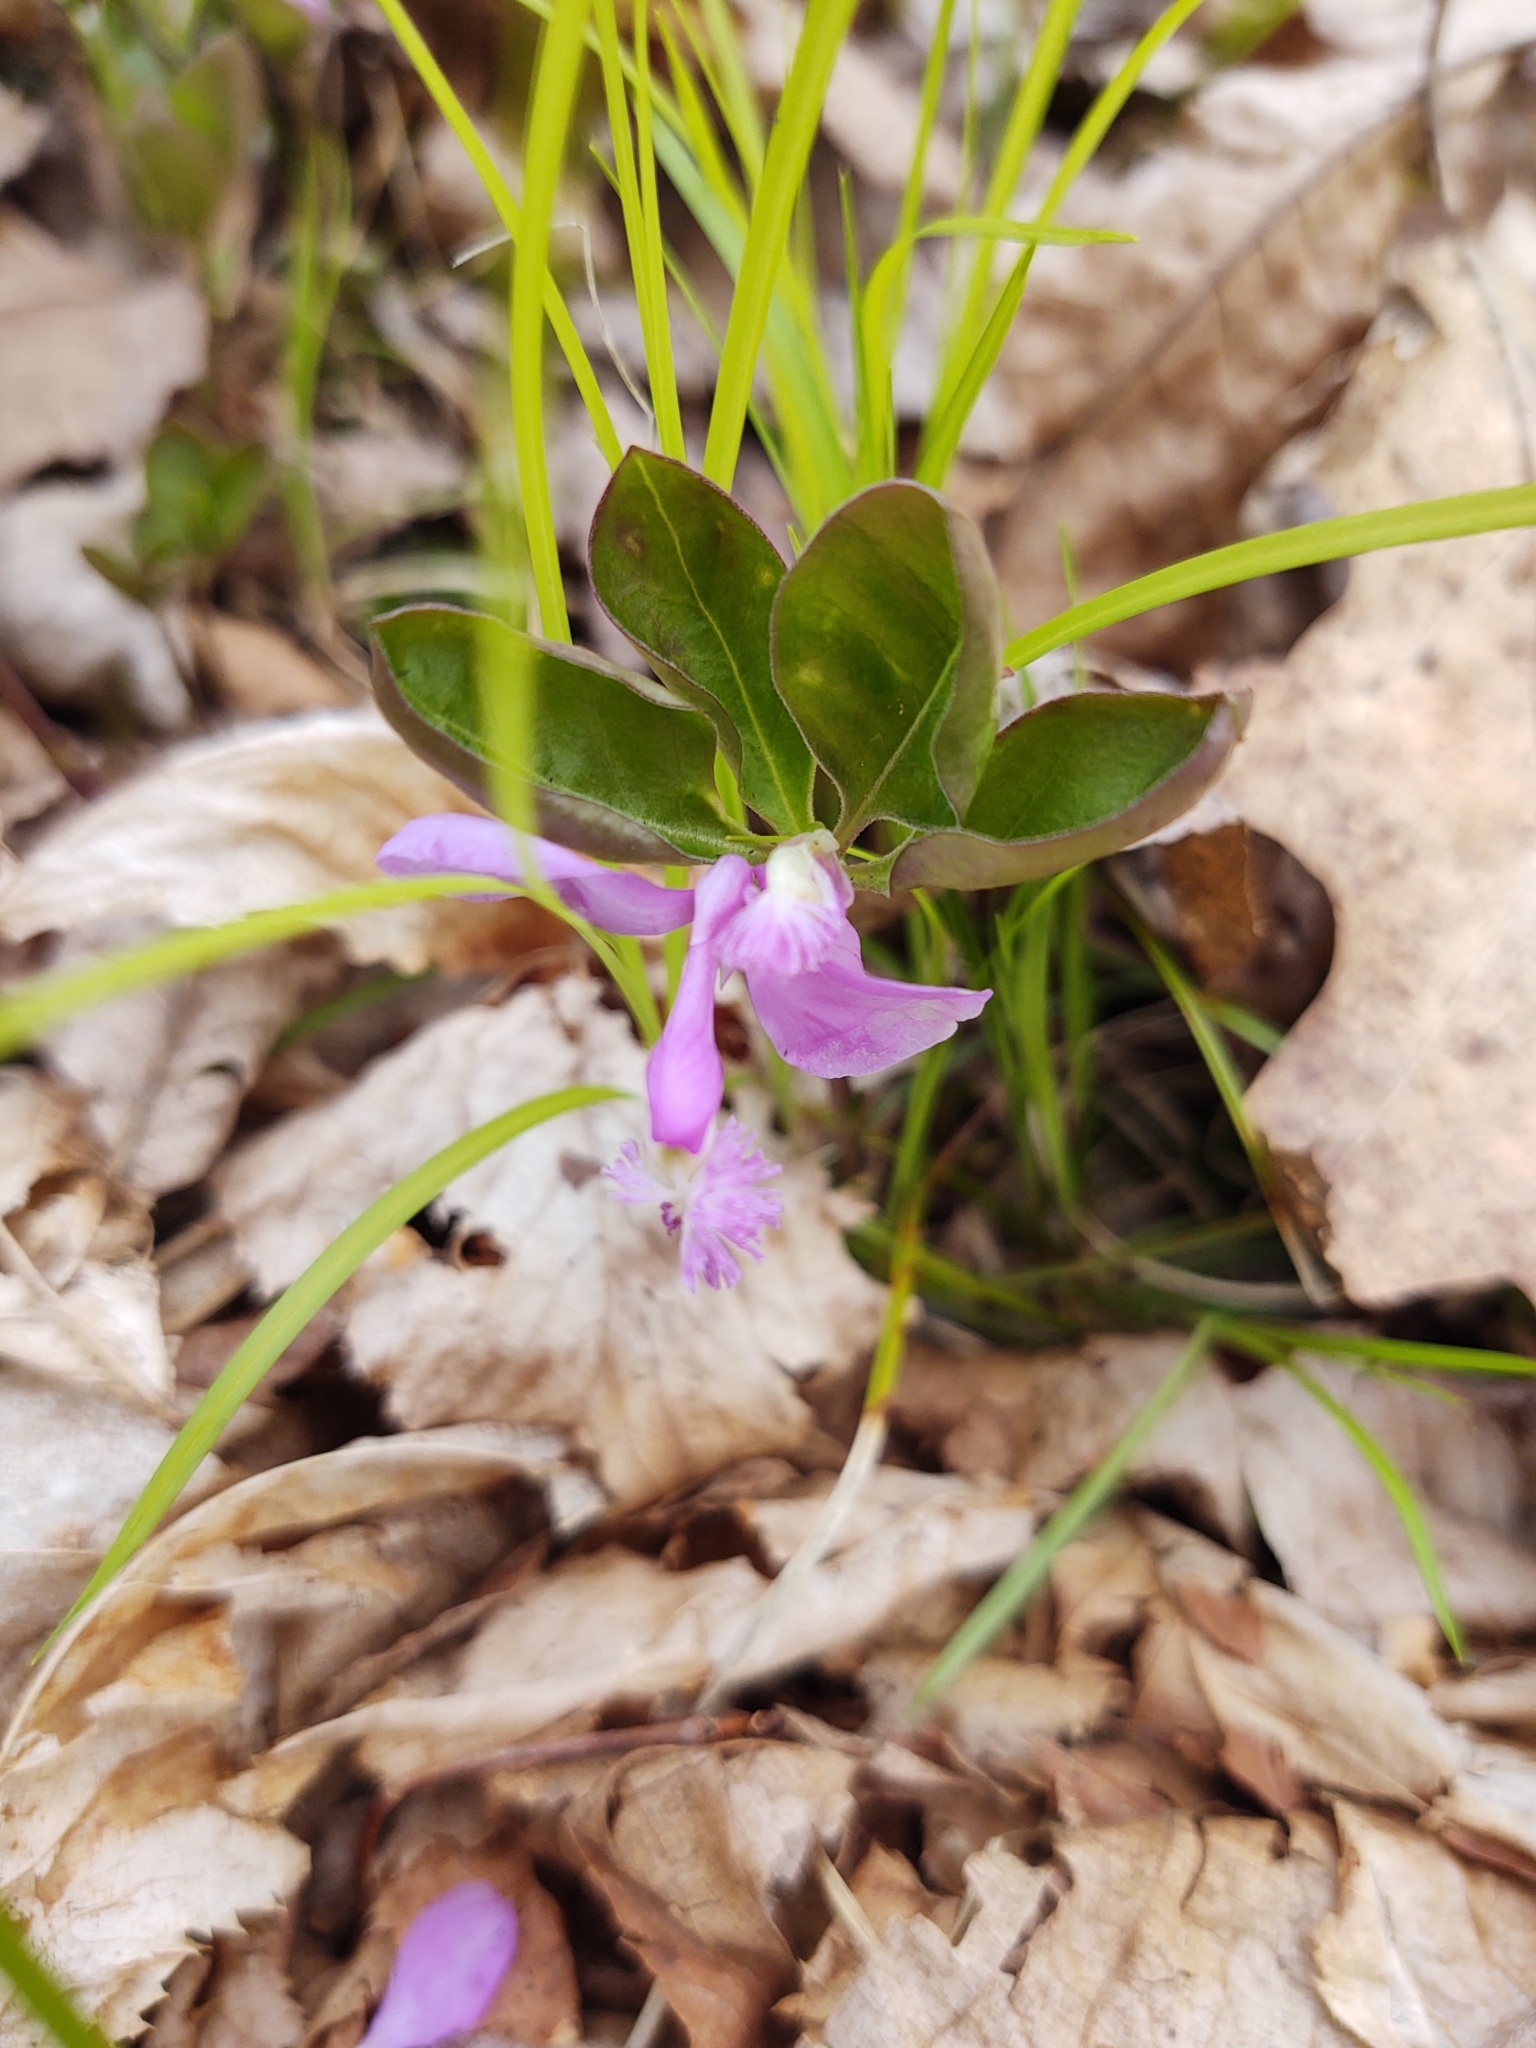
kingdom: Plantae
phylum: Tracheophyta
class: Magnoliopsida
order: Fabales
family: Polygalaceae
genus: Polygaloides
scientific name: Polygaloides paucifolia
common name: Bird-on-the-wing
